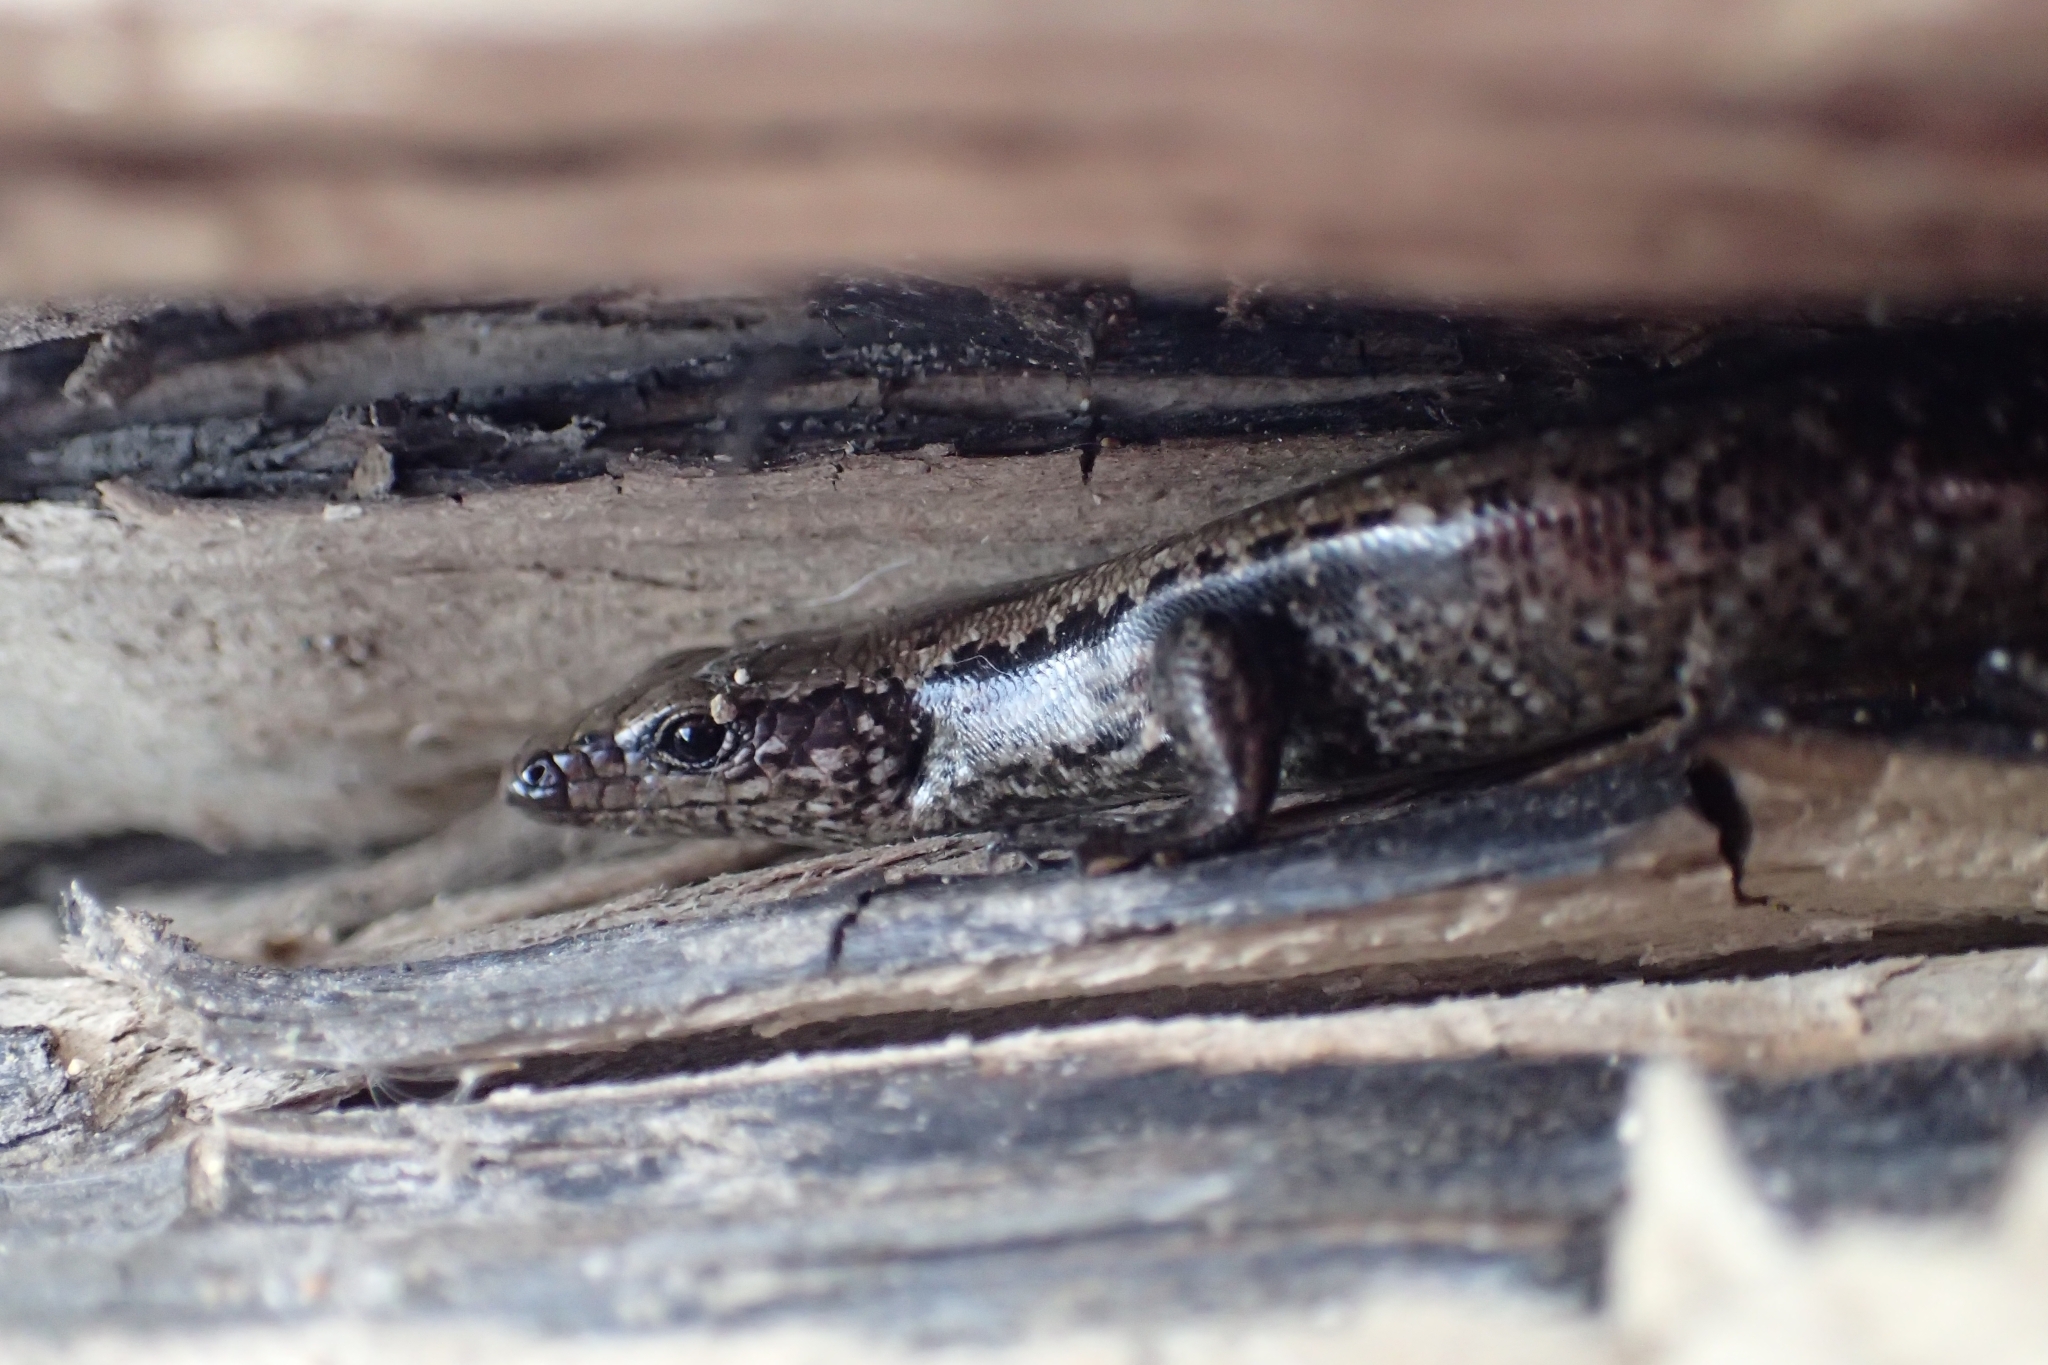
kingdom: Animalia
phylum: Chordata
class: Squamata
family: Scincidae
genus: Oligosoma
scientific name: Oligosoma smithi
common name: Shore skink
